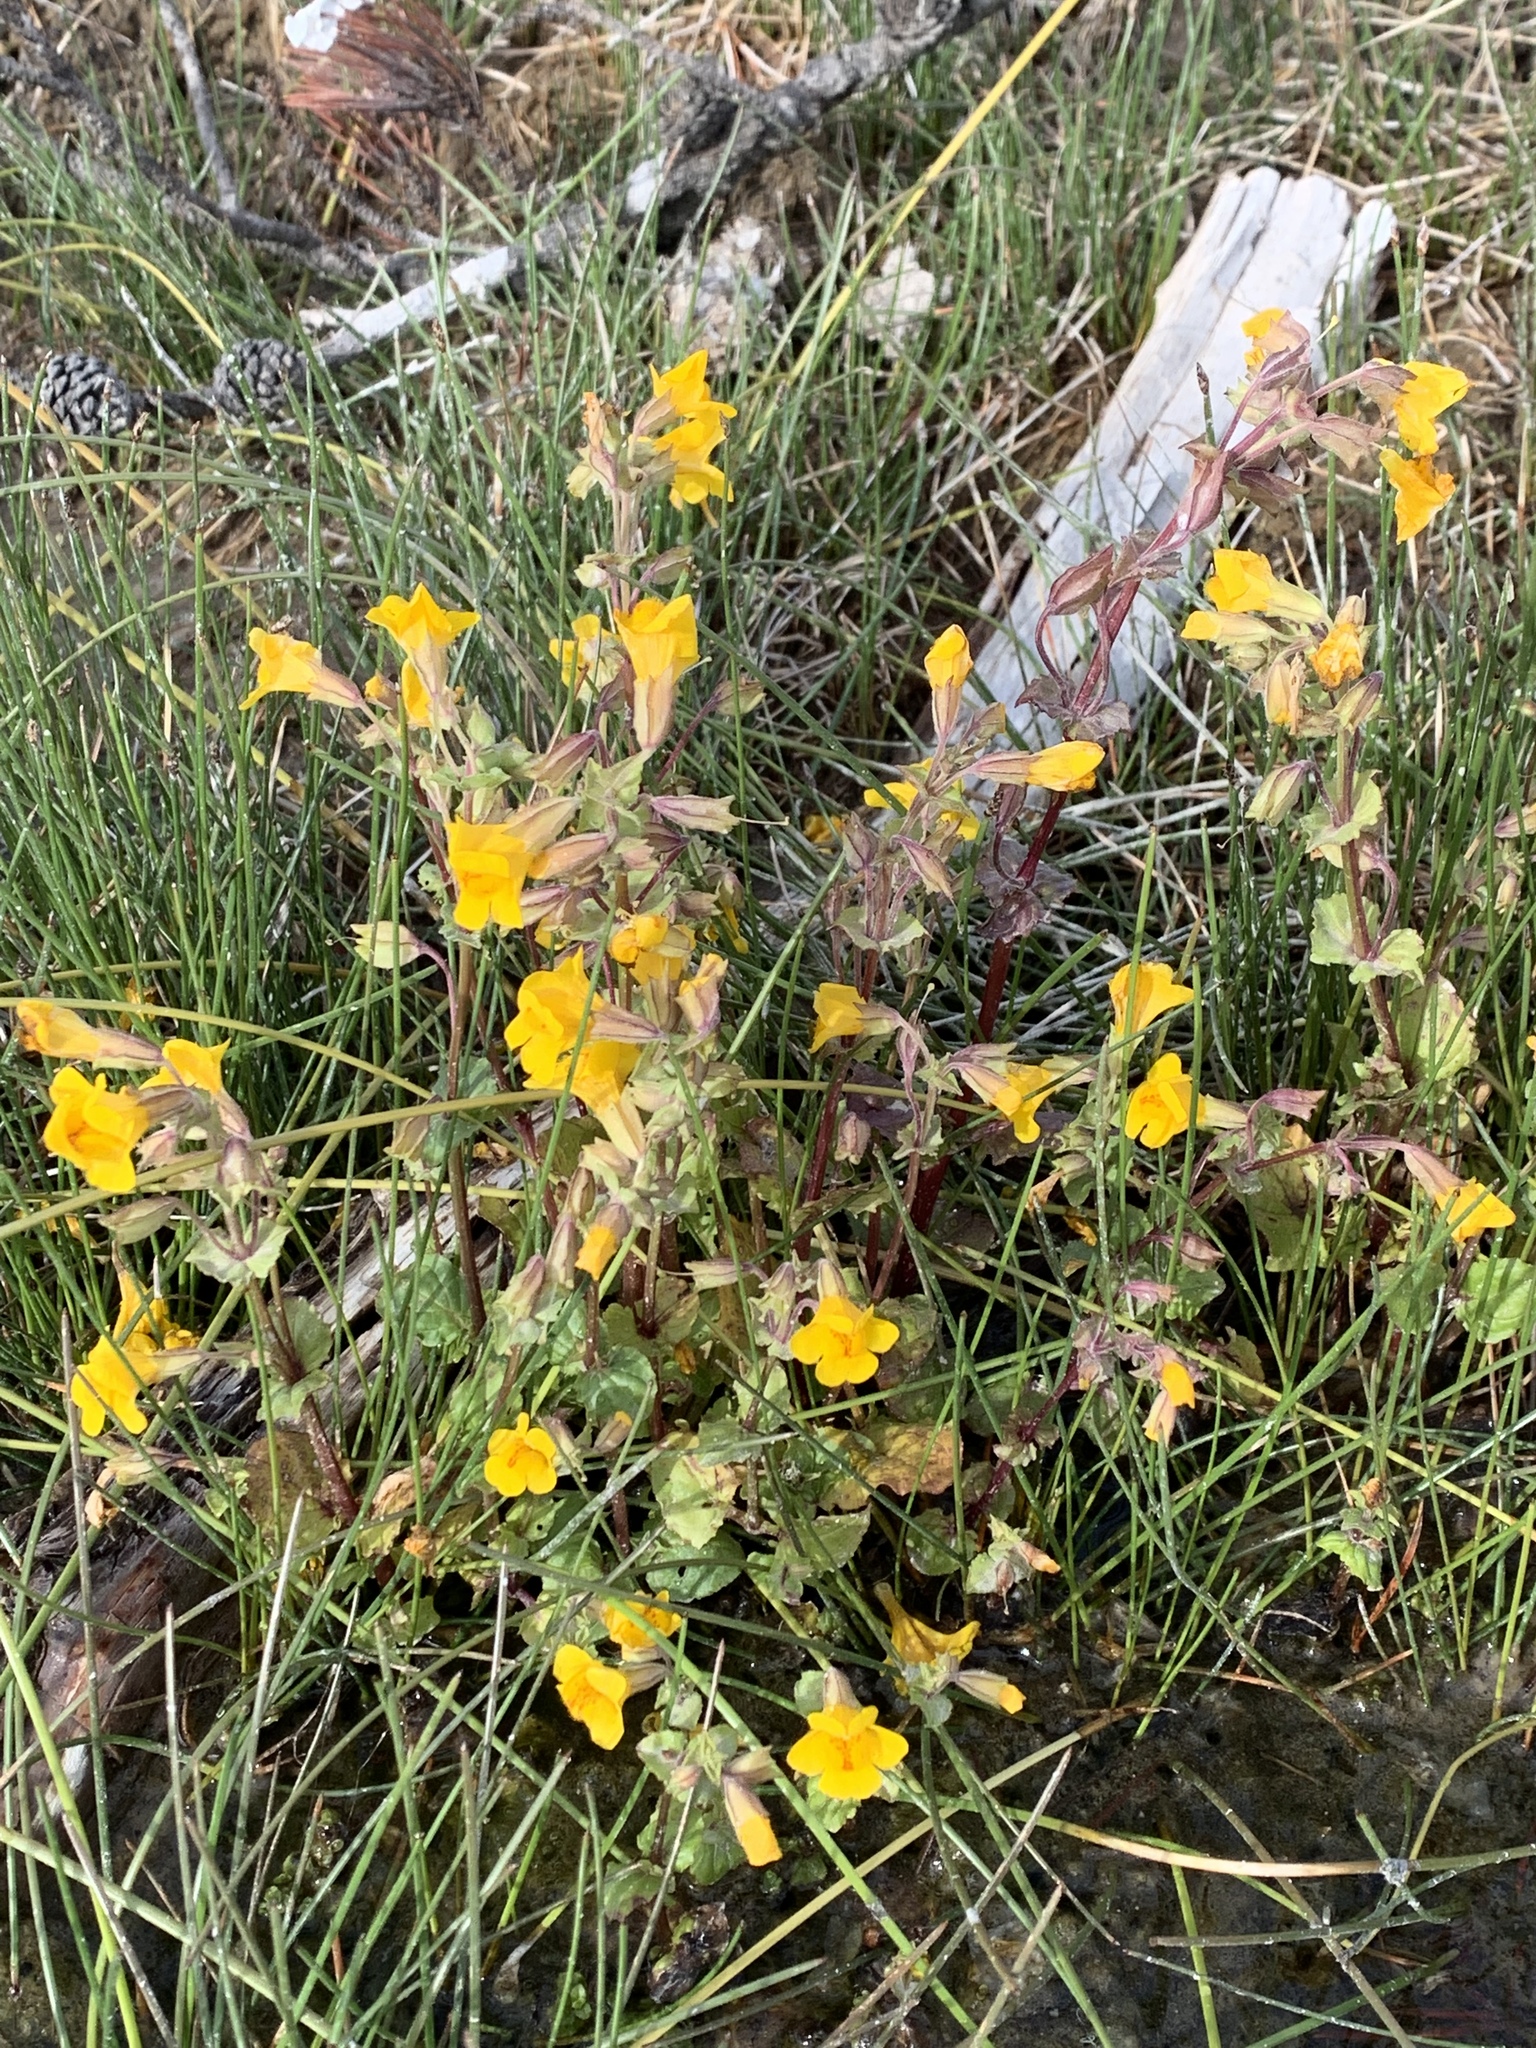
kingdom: Plantae
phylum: Tracheophyta
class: Magnoliopsida
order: Lamiales
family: Phrymaceae
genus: Erythranthe
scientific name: Erythranthe guttata
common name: Monkeyflower
